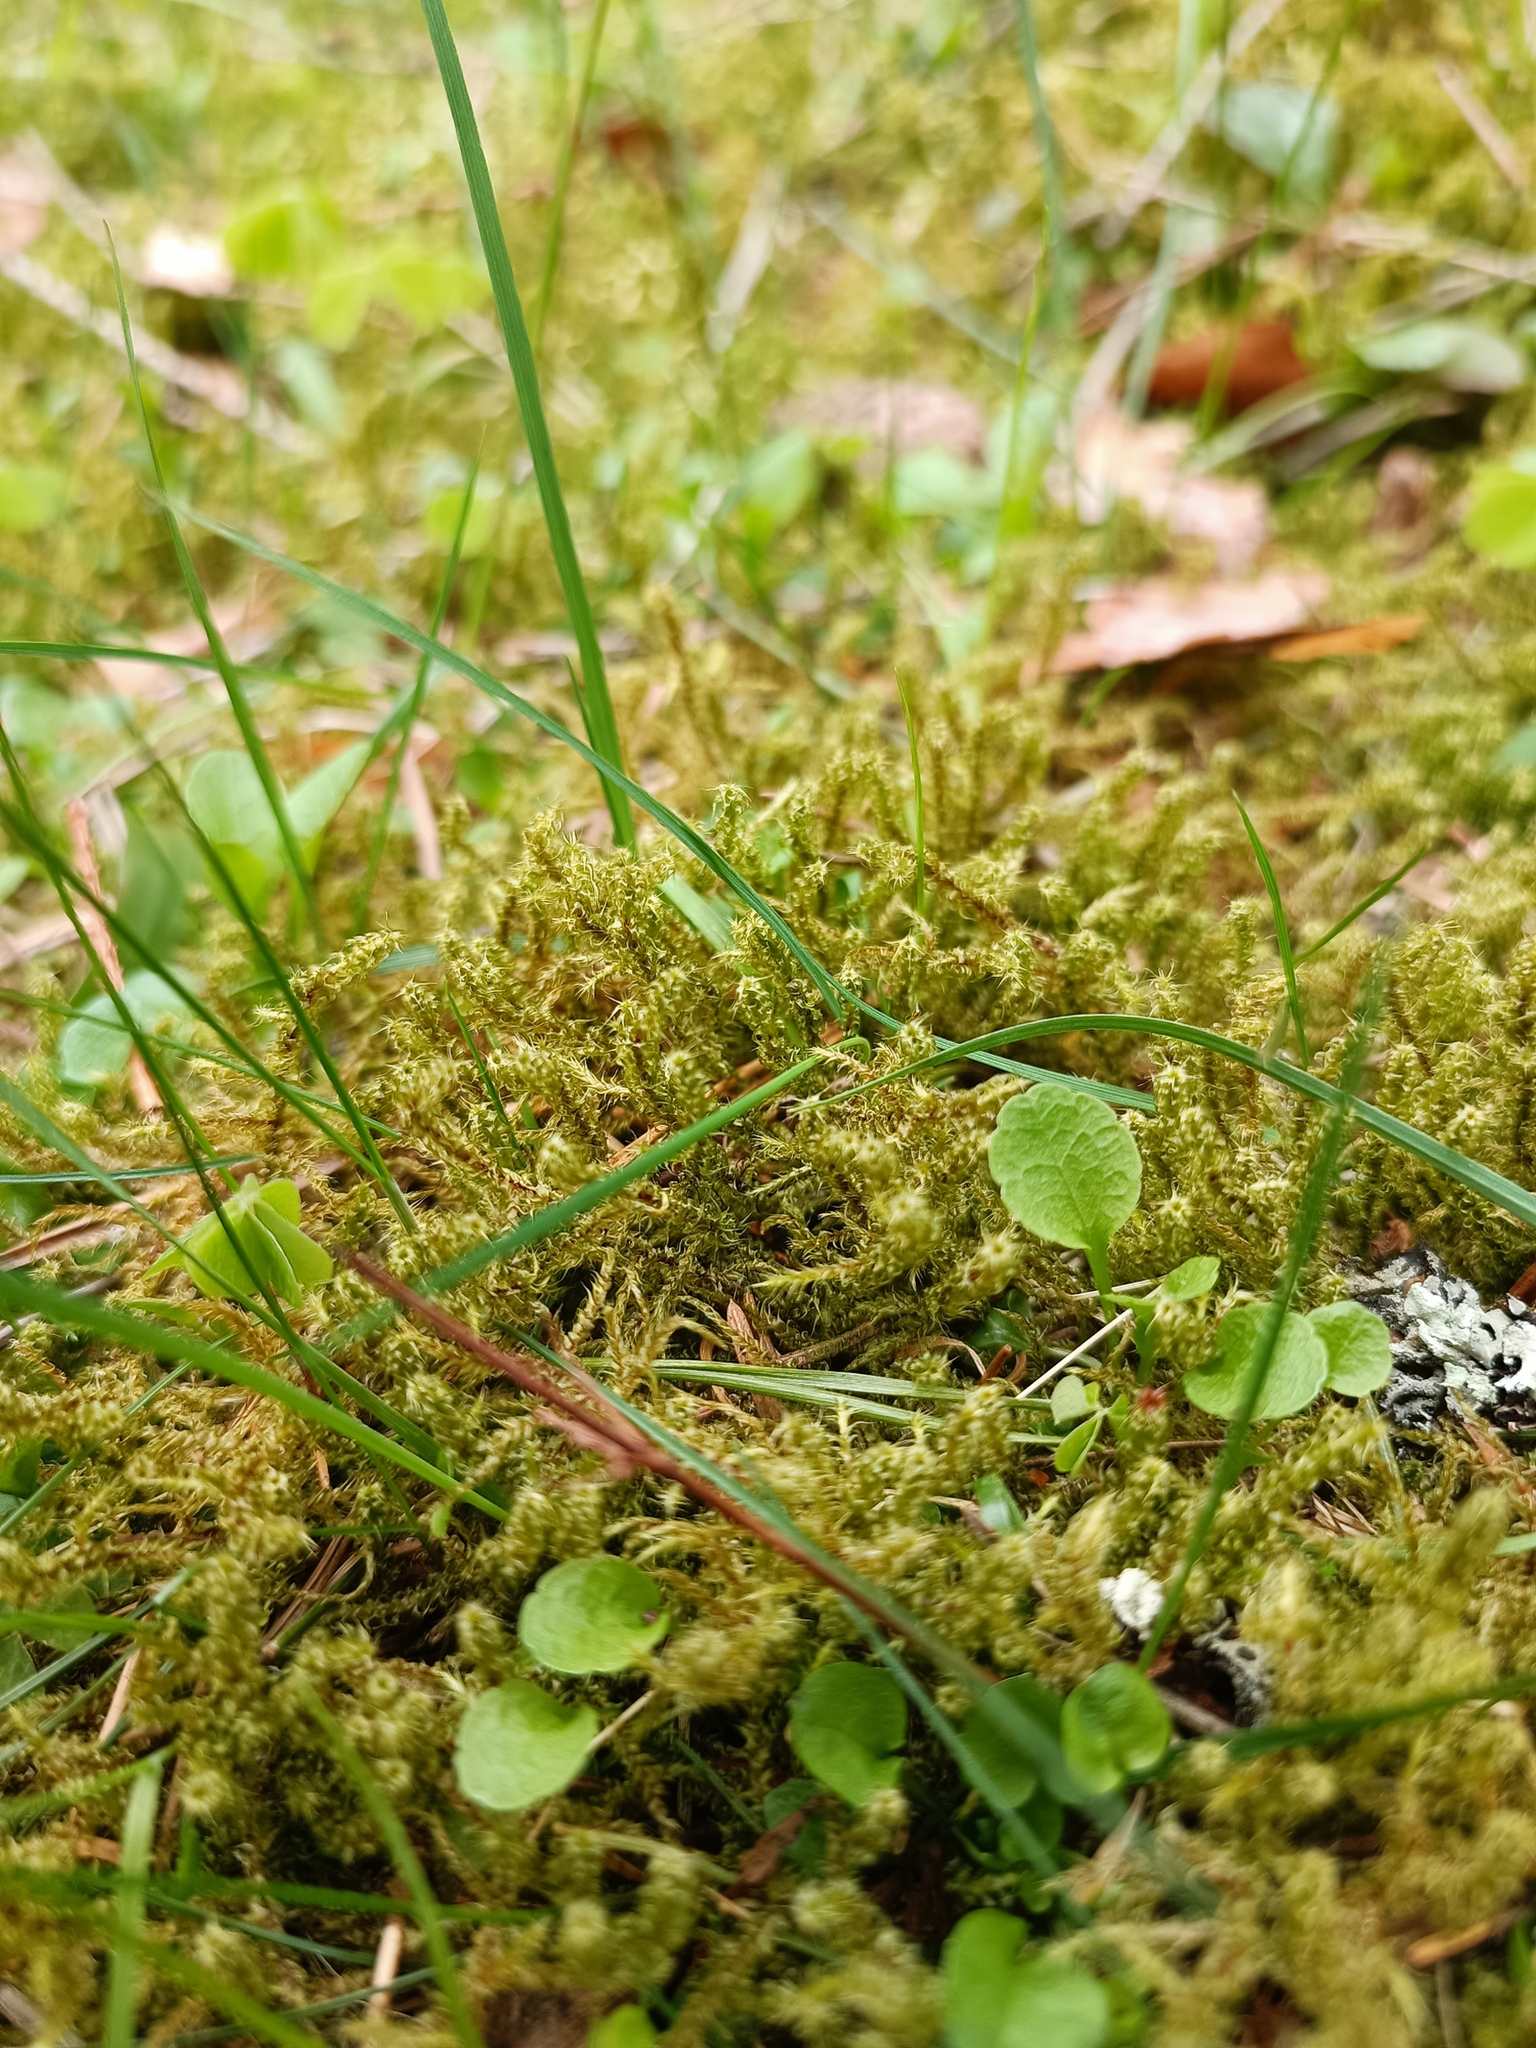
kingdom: Plantae
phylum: Bryophyta
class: Bryopsida
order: Hypnales
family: Hylocomiaceae
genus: Rhytidiadelphus
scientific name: Rhytidiadelphus squarrosus
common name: Springy turf-moss
